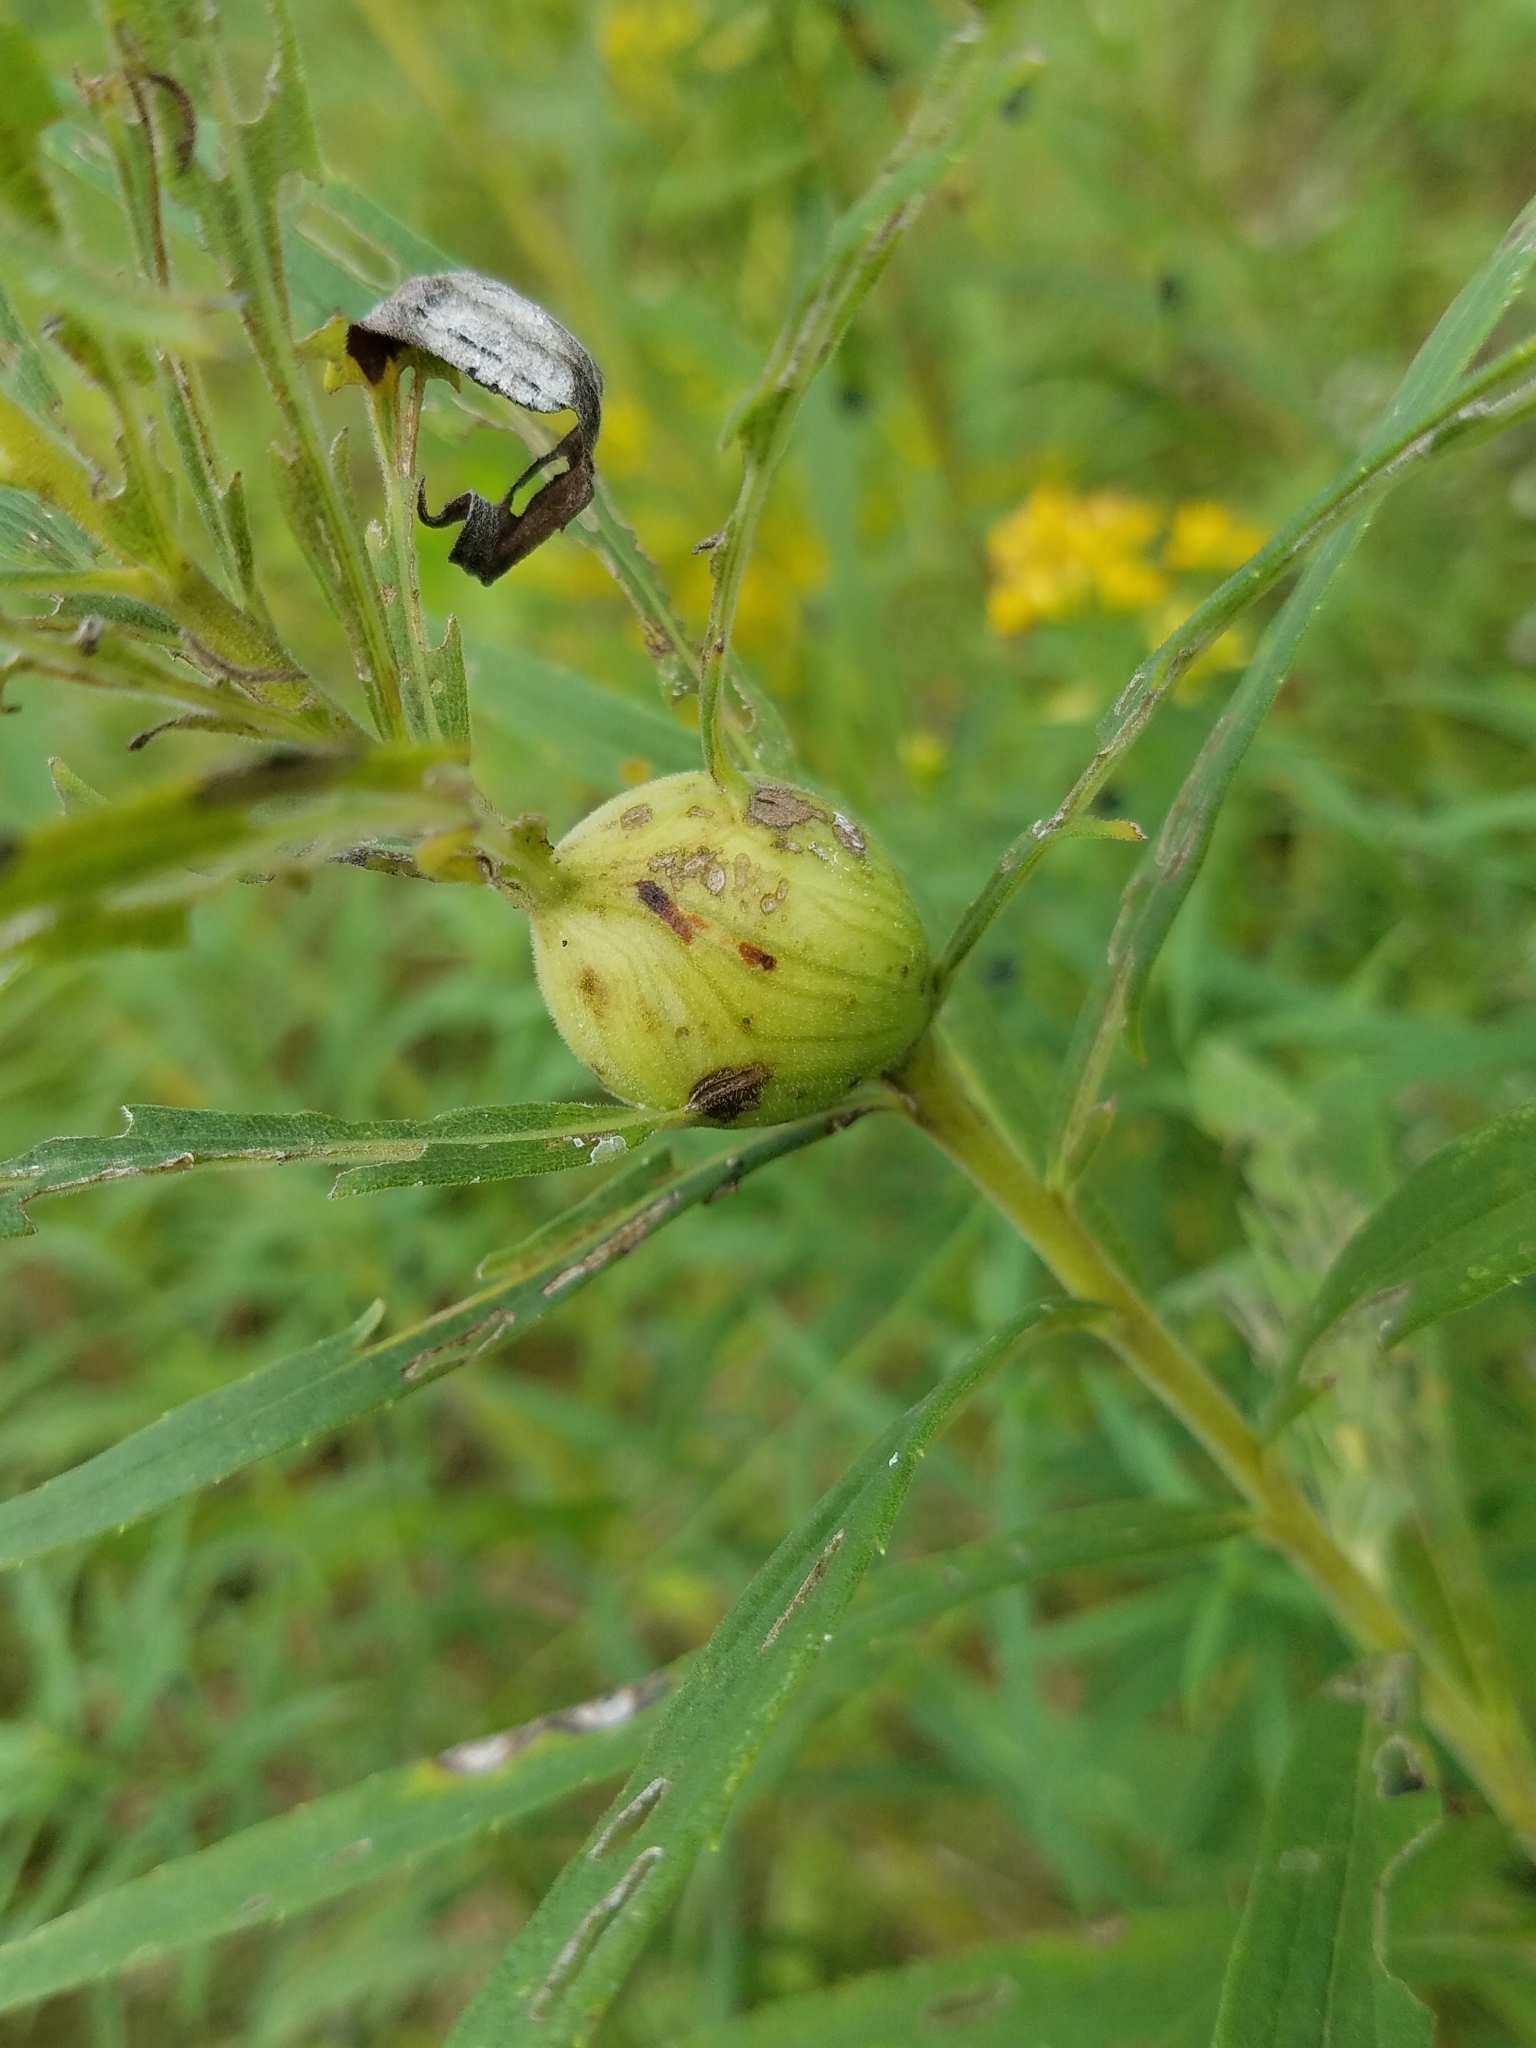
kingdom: Animalia
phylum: Arthropoda
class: Insecta
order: Diptera
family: Tephritidae
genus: Eurosta
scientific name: Eurosta solidaginis
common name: Goldenrod gall fly
